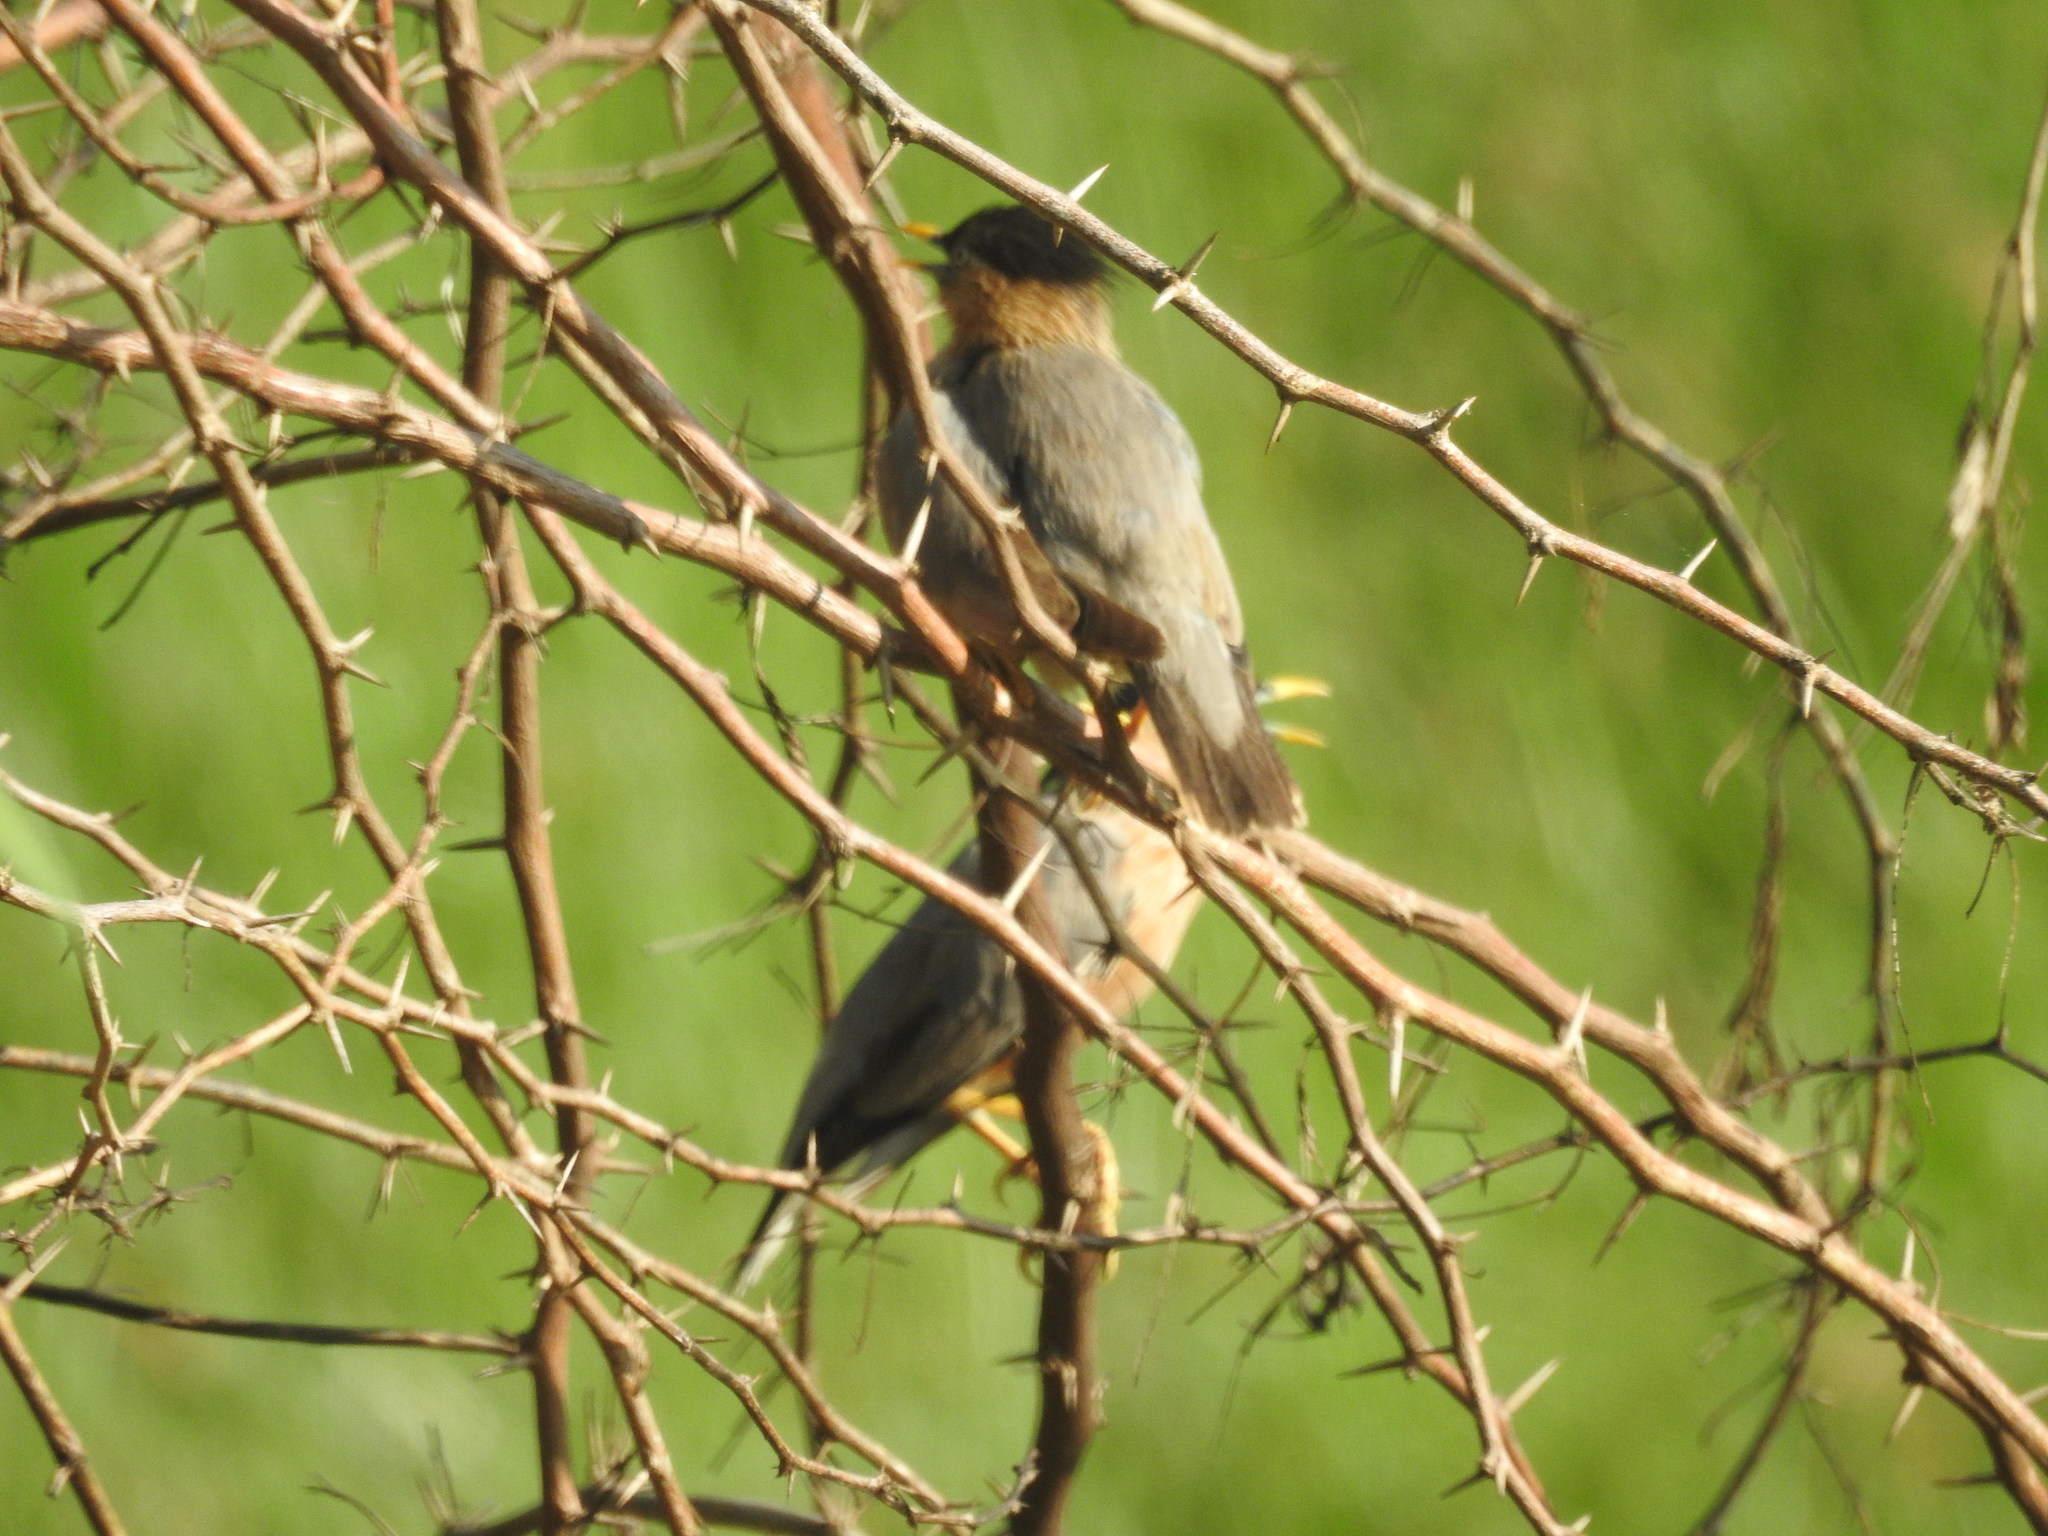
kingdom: Animalia
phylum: Chordata
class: Aves
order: Passeriformes
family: Sturnidae
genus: Sturnia
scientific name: Sturnia pagodarum
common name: Brahminy starling
